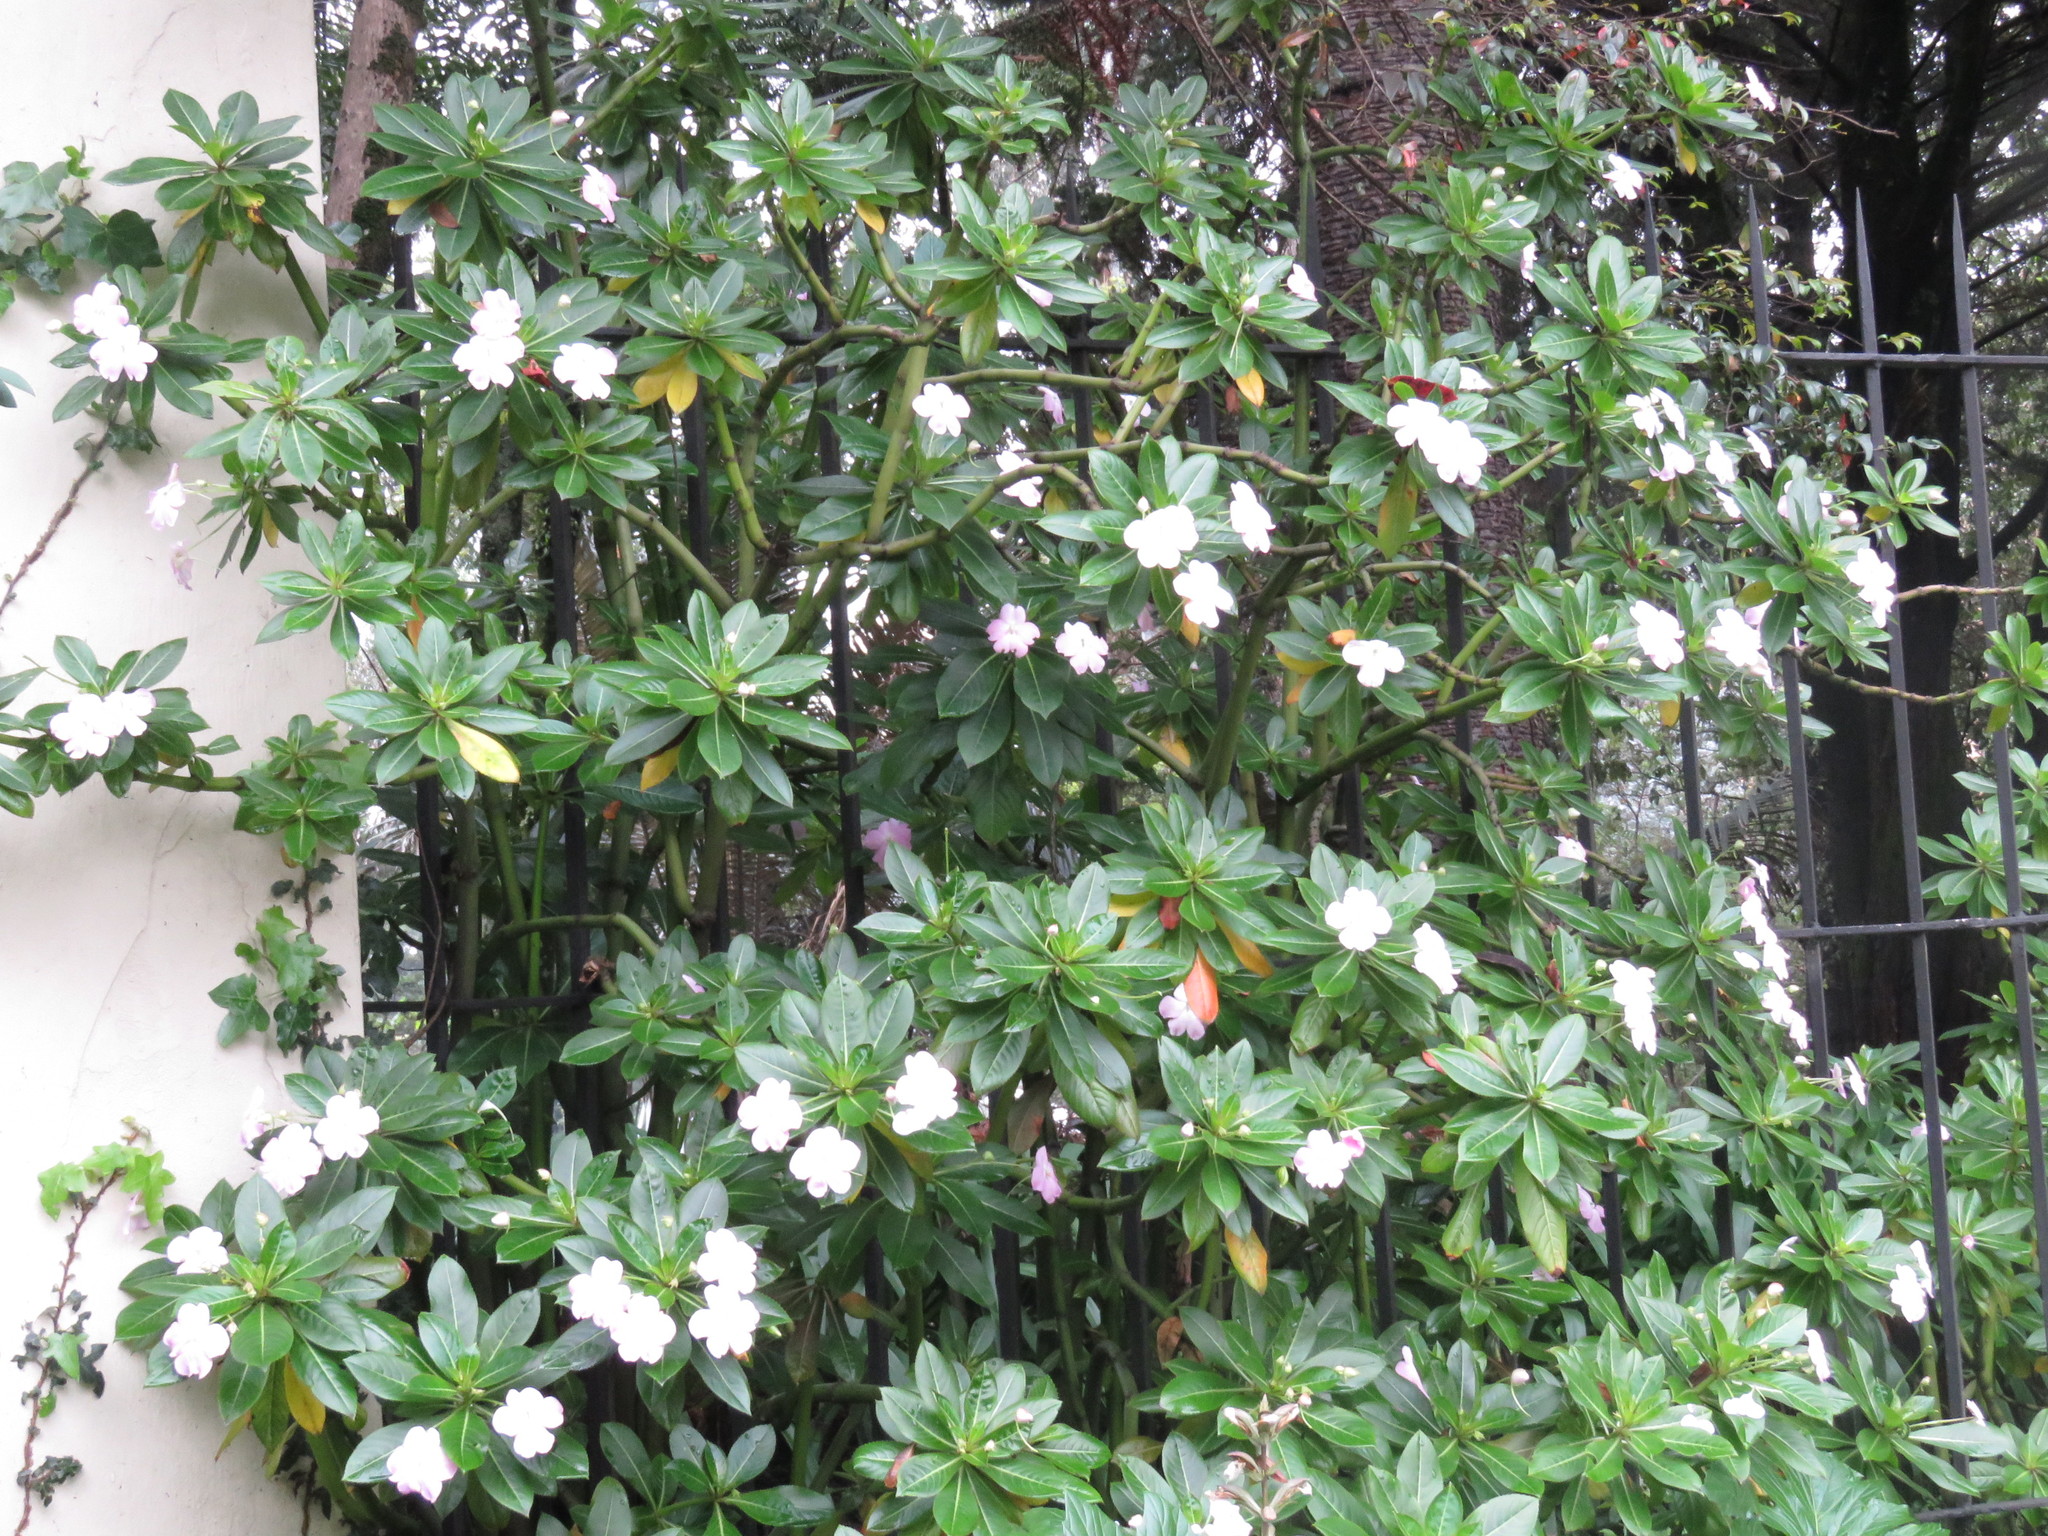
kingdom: Plantae
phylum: Tracheophyta
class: Magnoliopsida
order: Ericales
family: Balsaminaceae
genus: Impatiens
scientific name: Impatiens sodenii
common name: Oliver's touch-me-not
